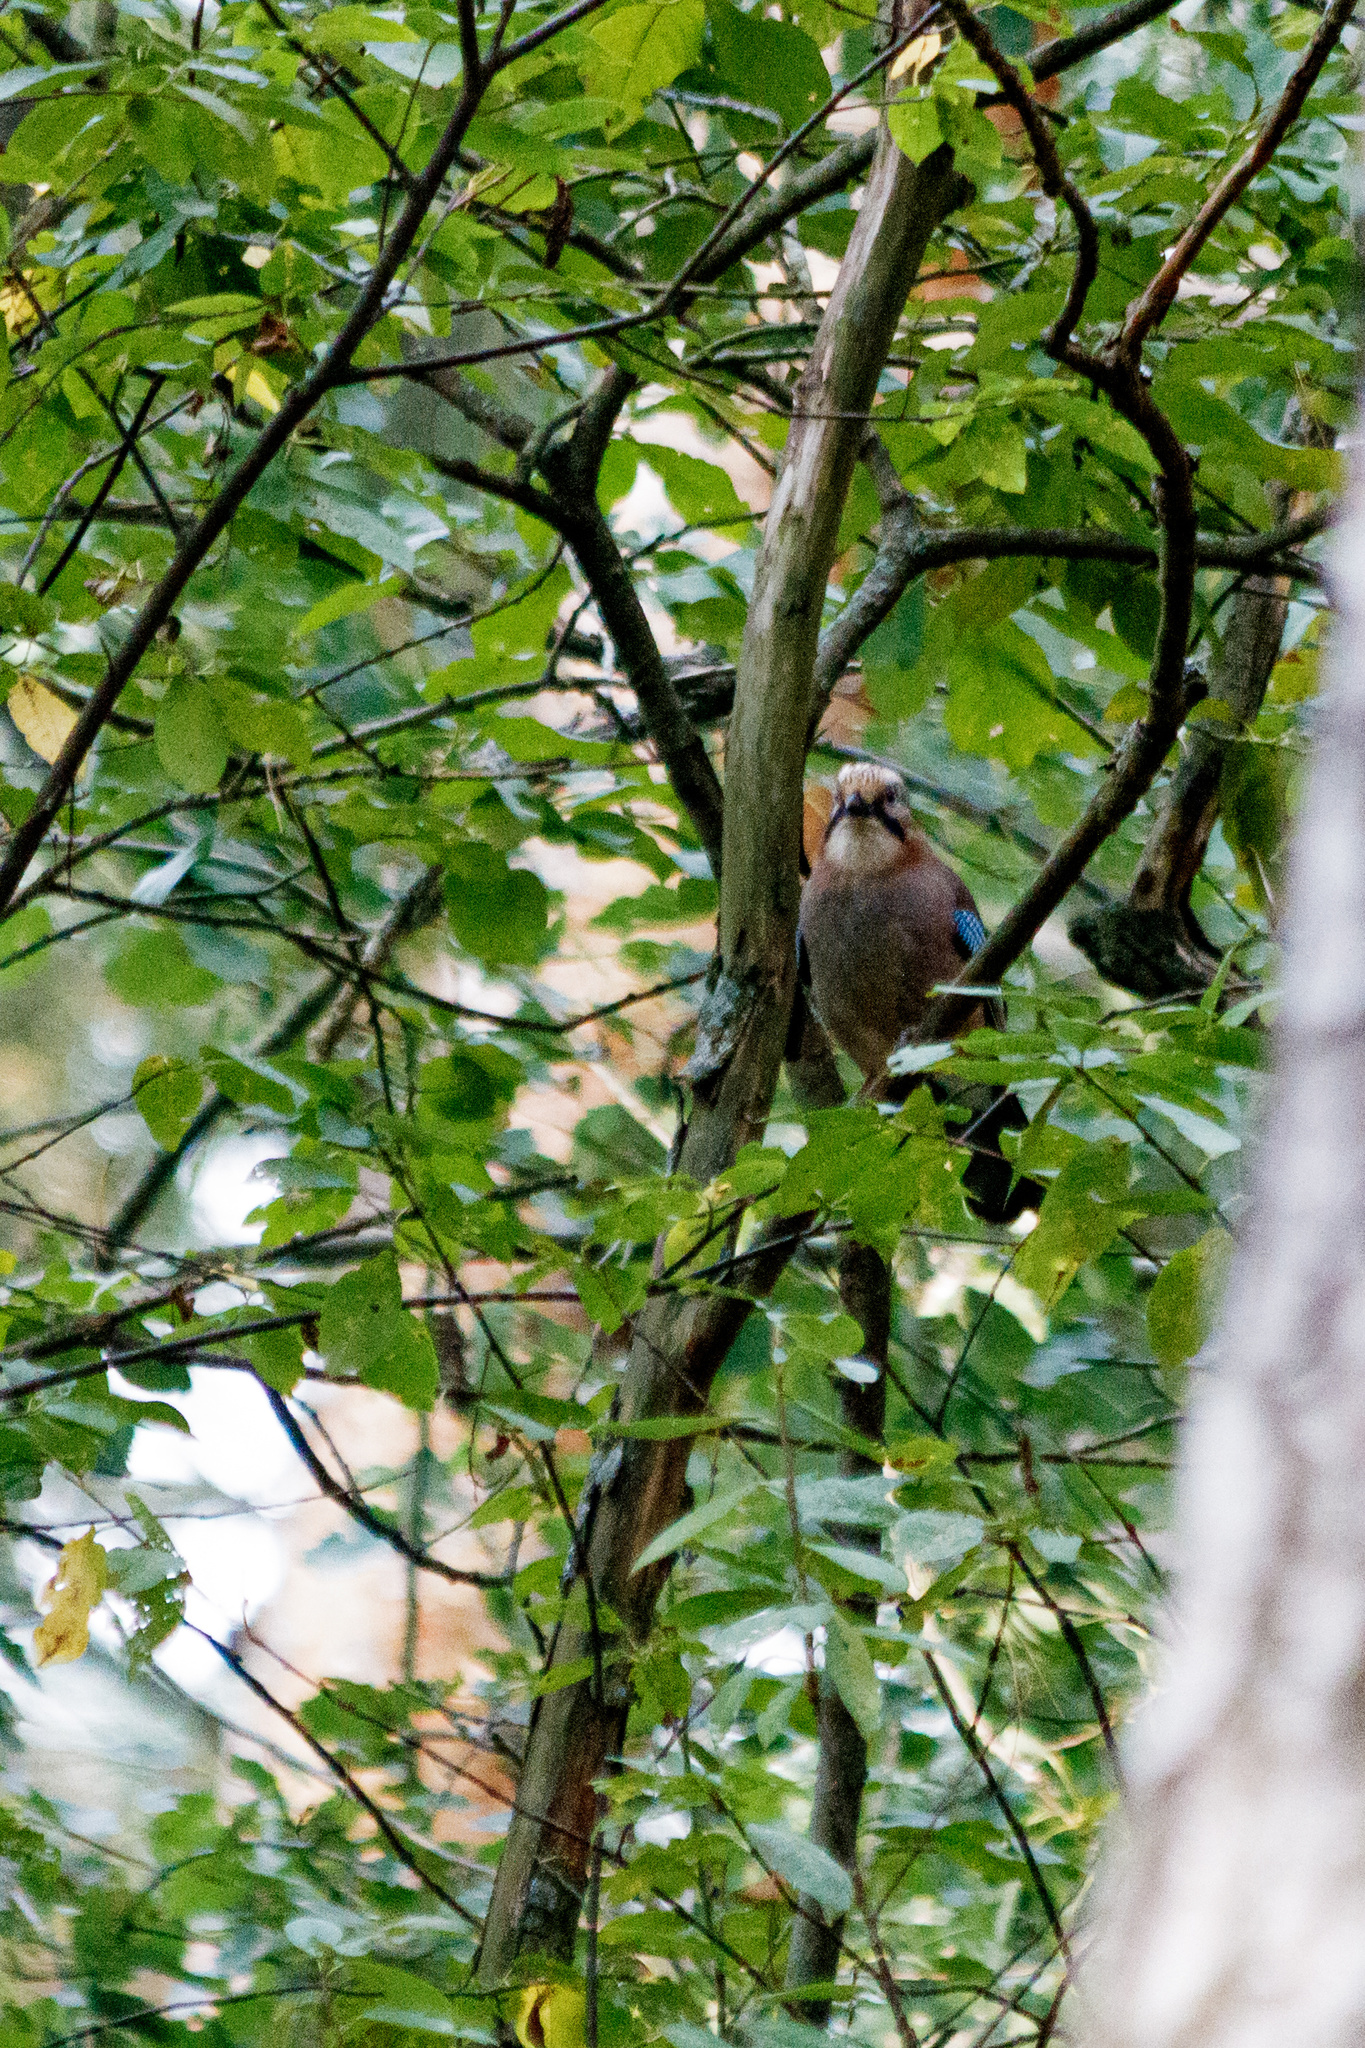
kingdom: Animalia
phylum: Chordata
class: Aves
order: Passeriformes
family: Corvidae
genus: Garrulus
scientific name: Garrulus glandarius
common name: Eurasian jay
